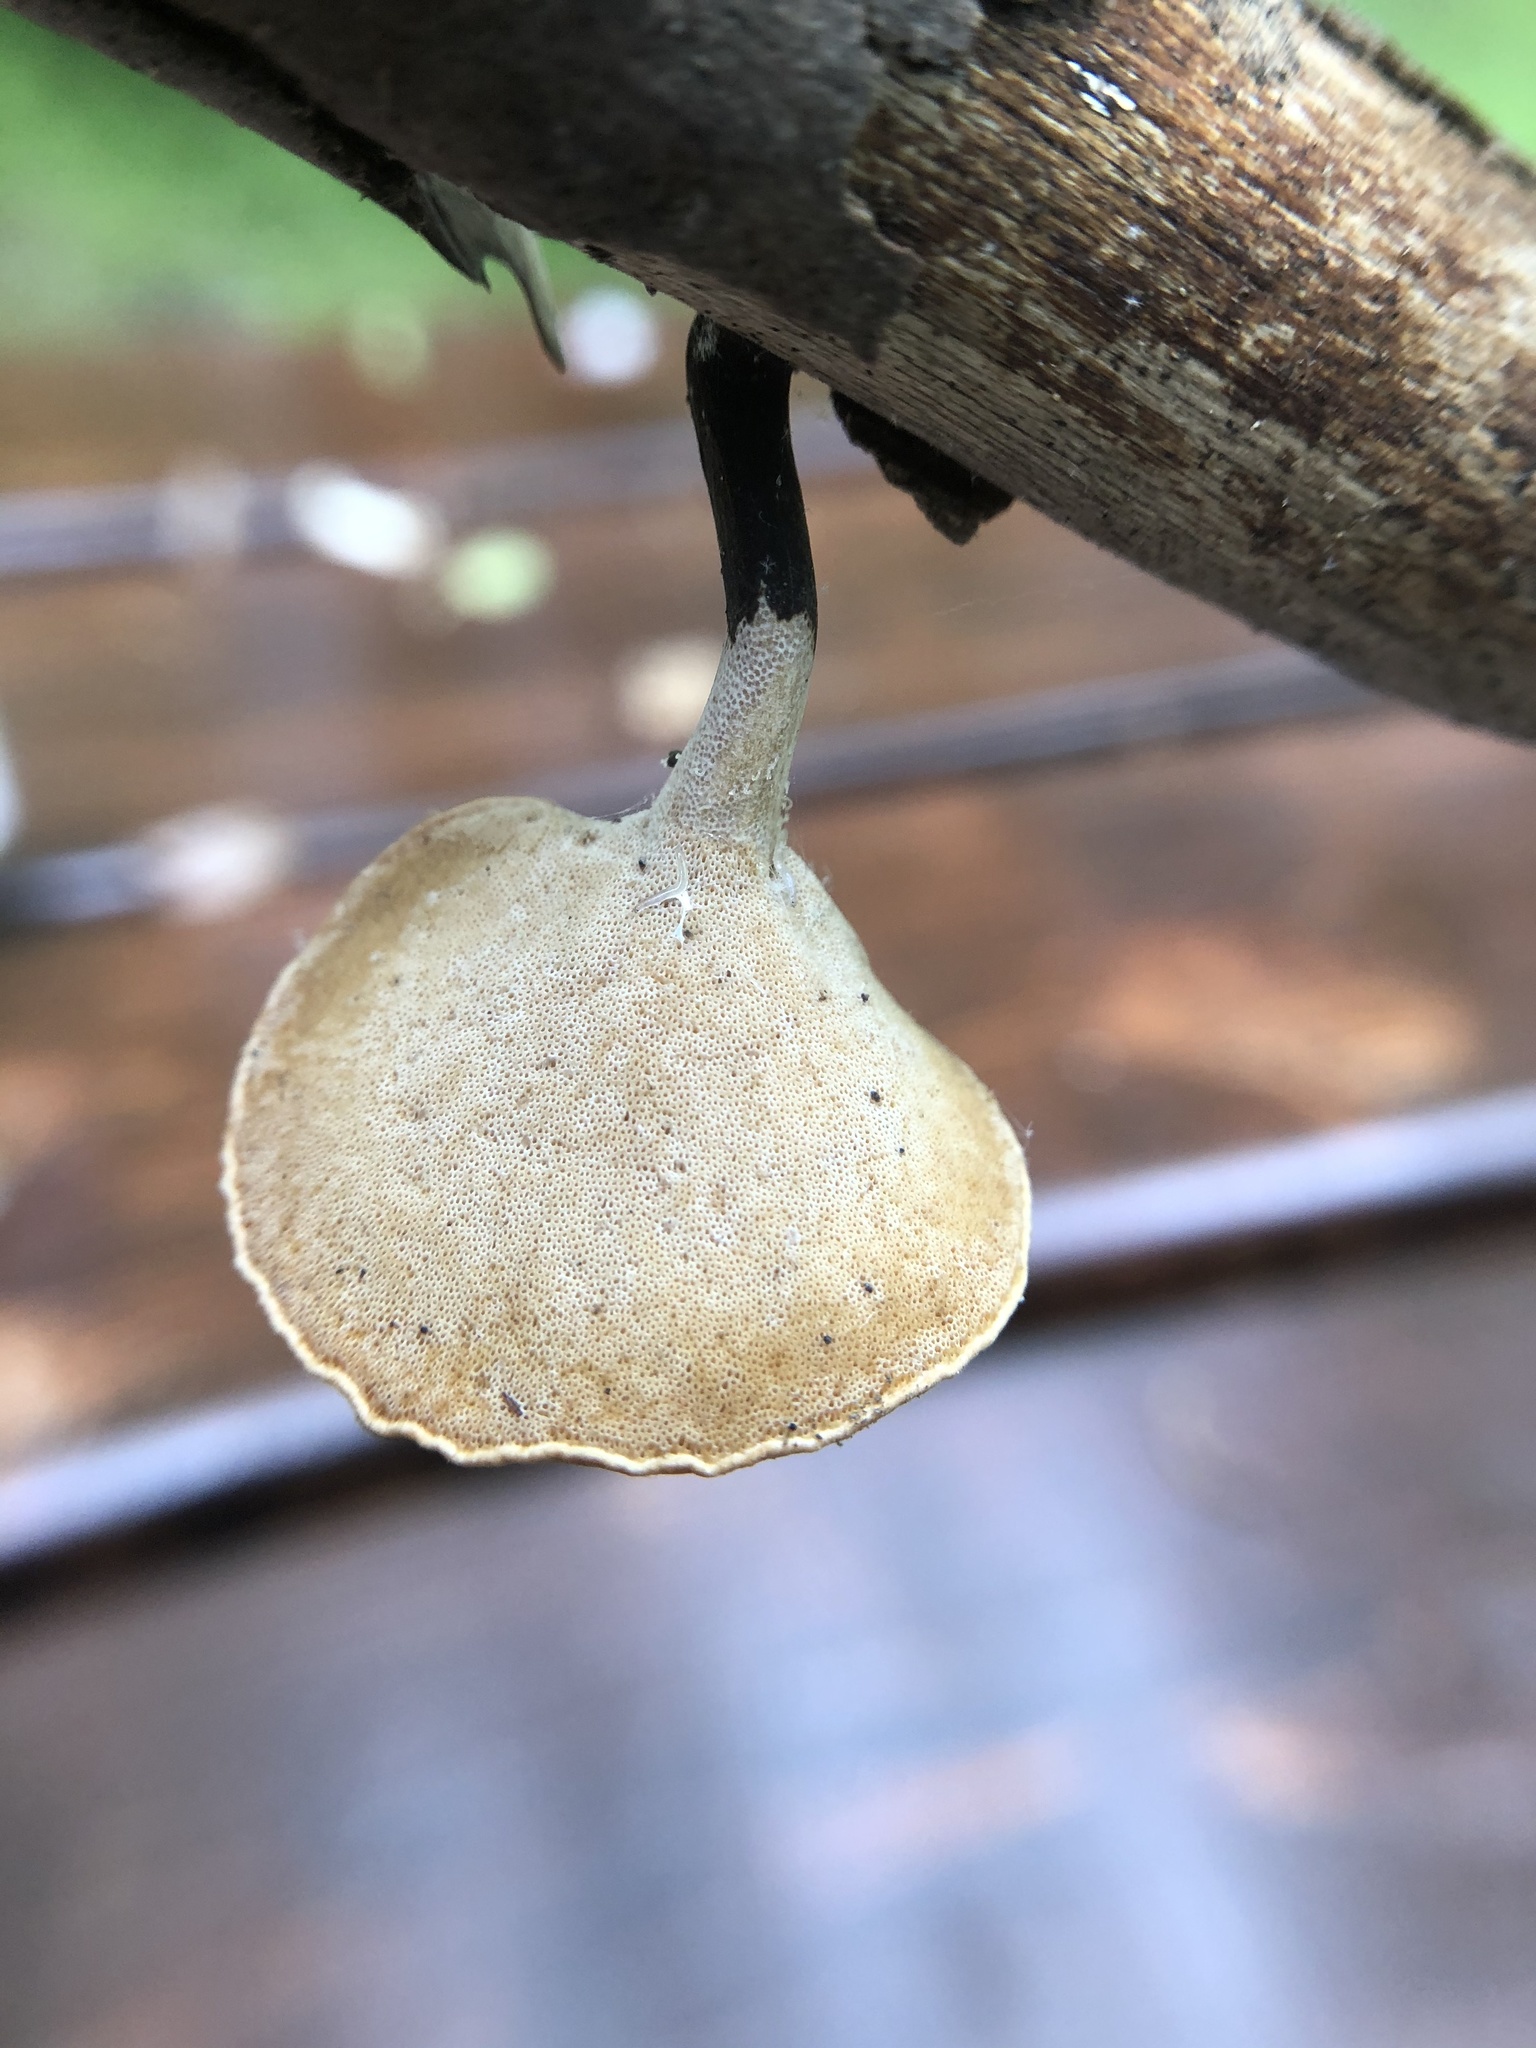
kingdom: Fungi
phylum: Basidiomycota
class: Agaricomycetes
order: Polyporales
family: Polyporaceae
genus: Cerioporus
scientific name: Cerioporus leptocephalus
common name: Blackfoot polypore
